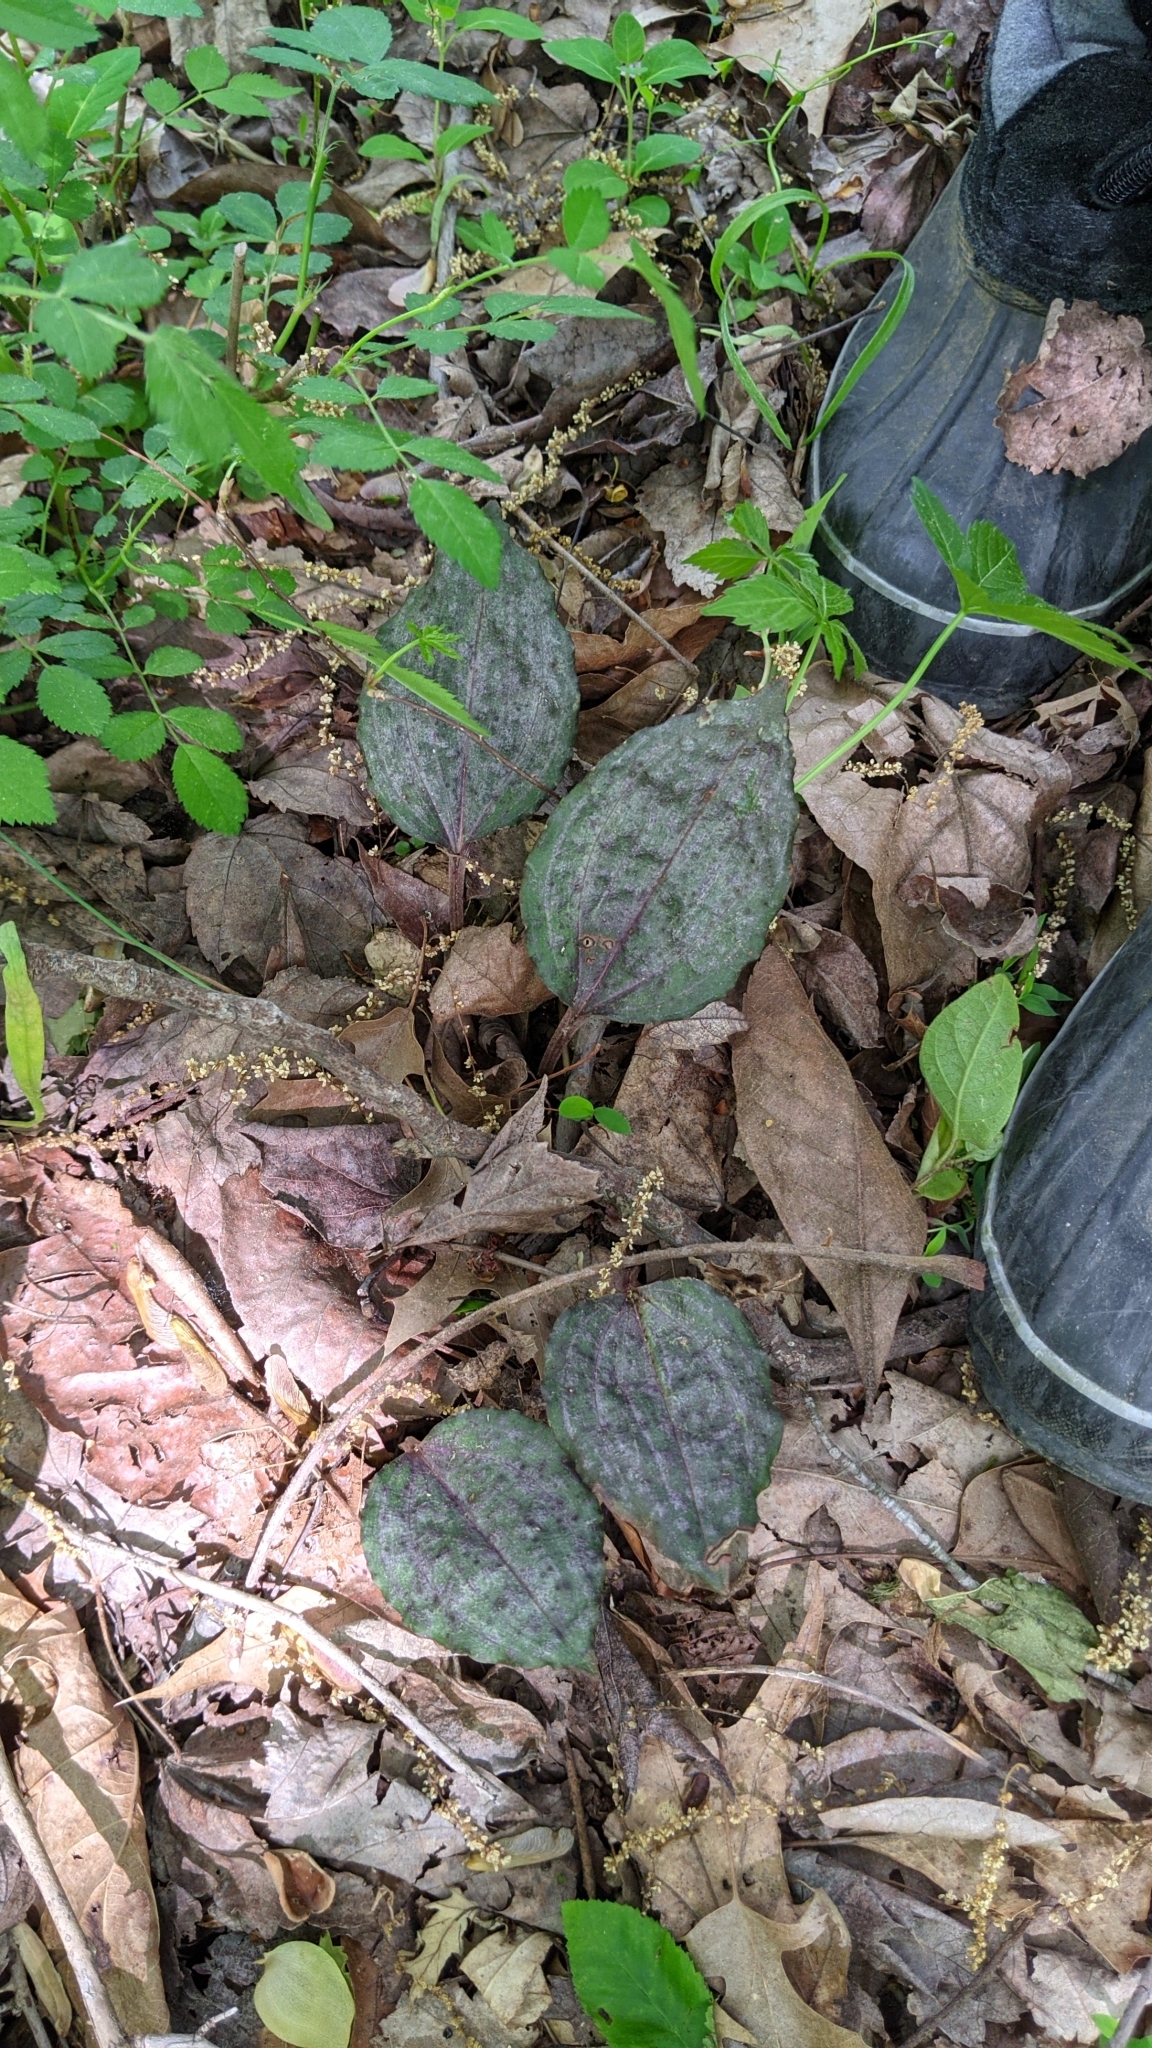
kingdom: Plantae
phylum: Tracheophyta
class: Liliopsida
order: Asparagales
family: Orchidaceae
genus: Tipularia
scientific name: Tipularia discolor
